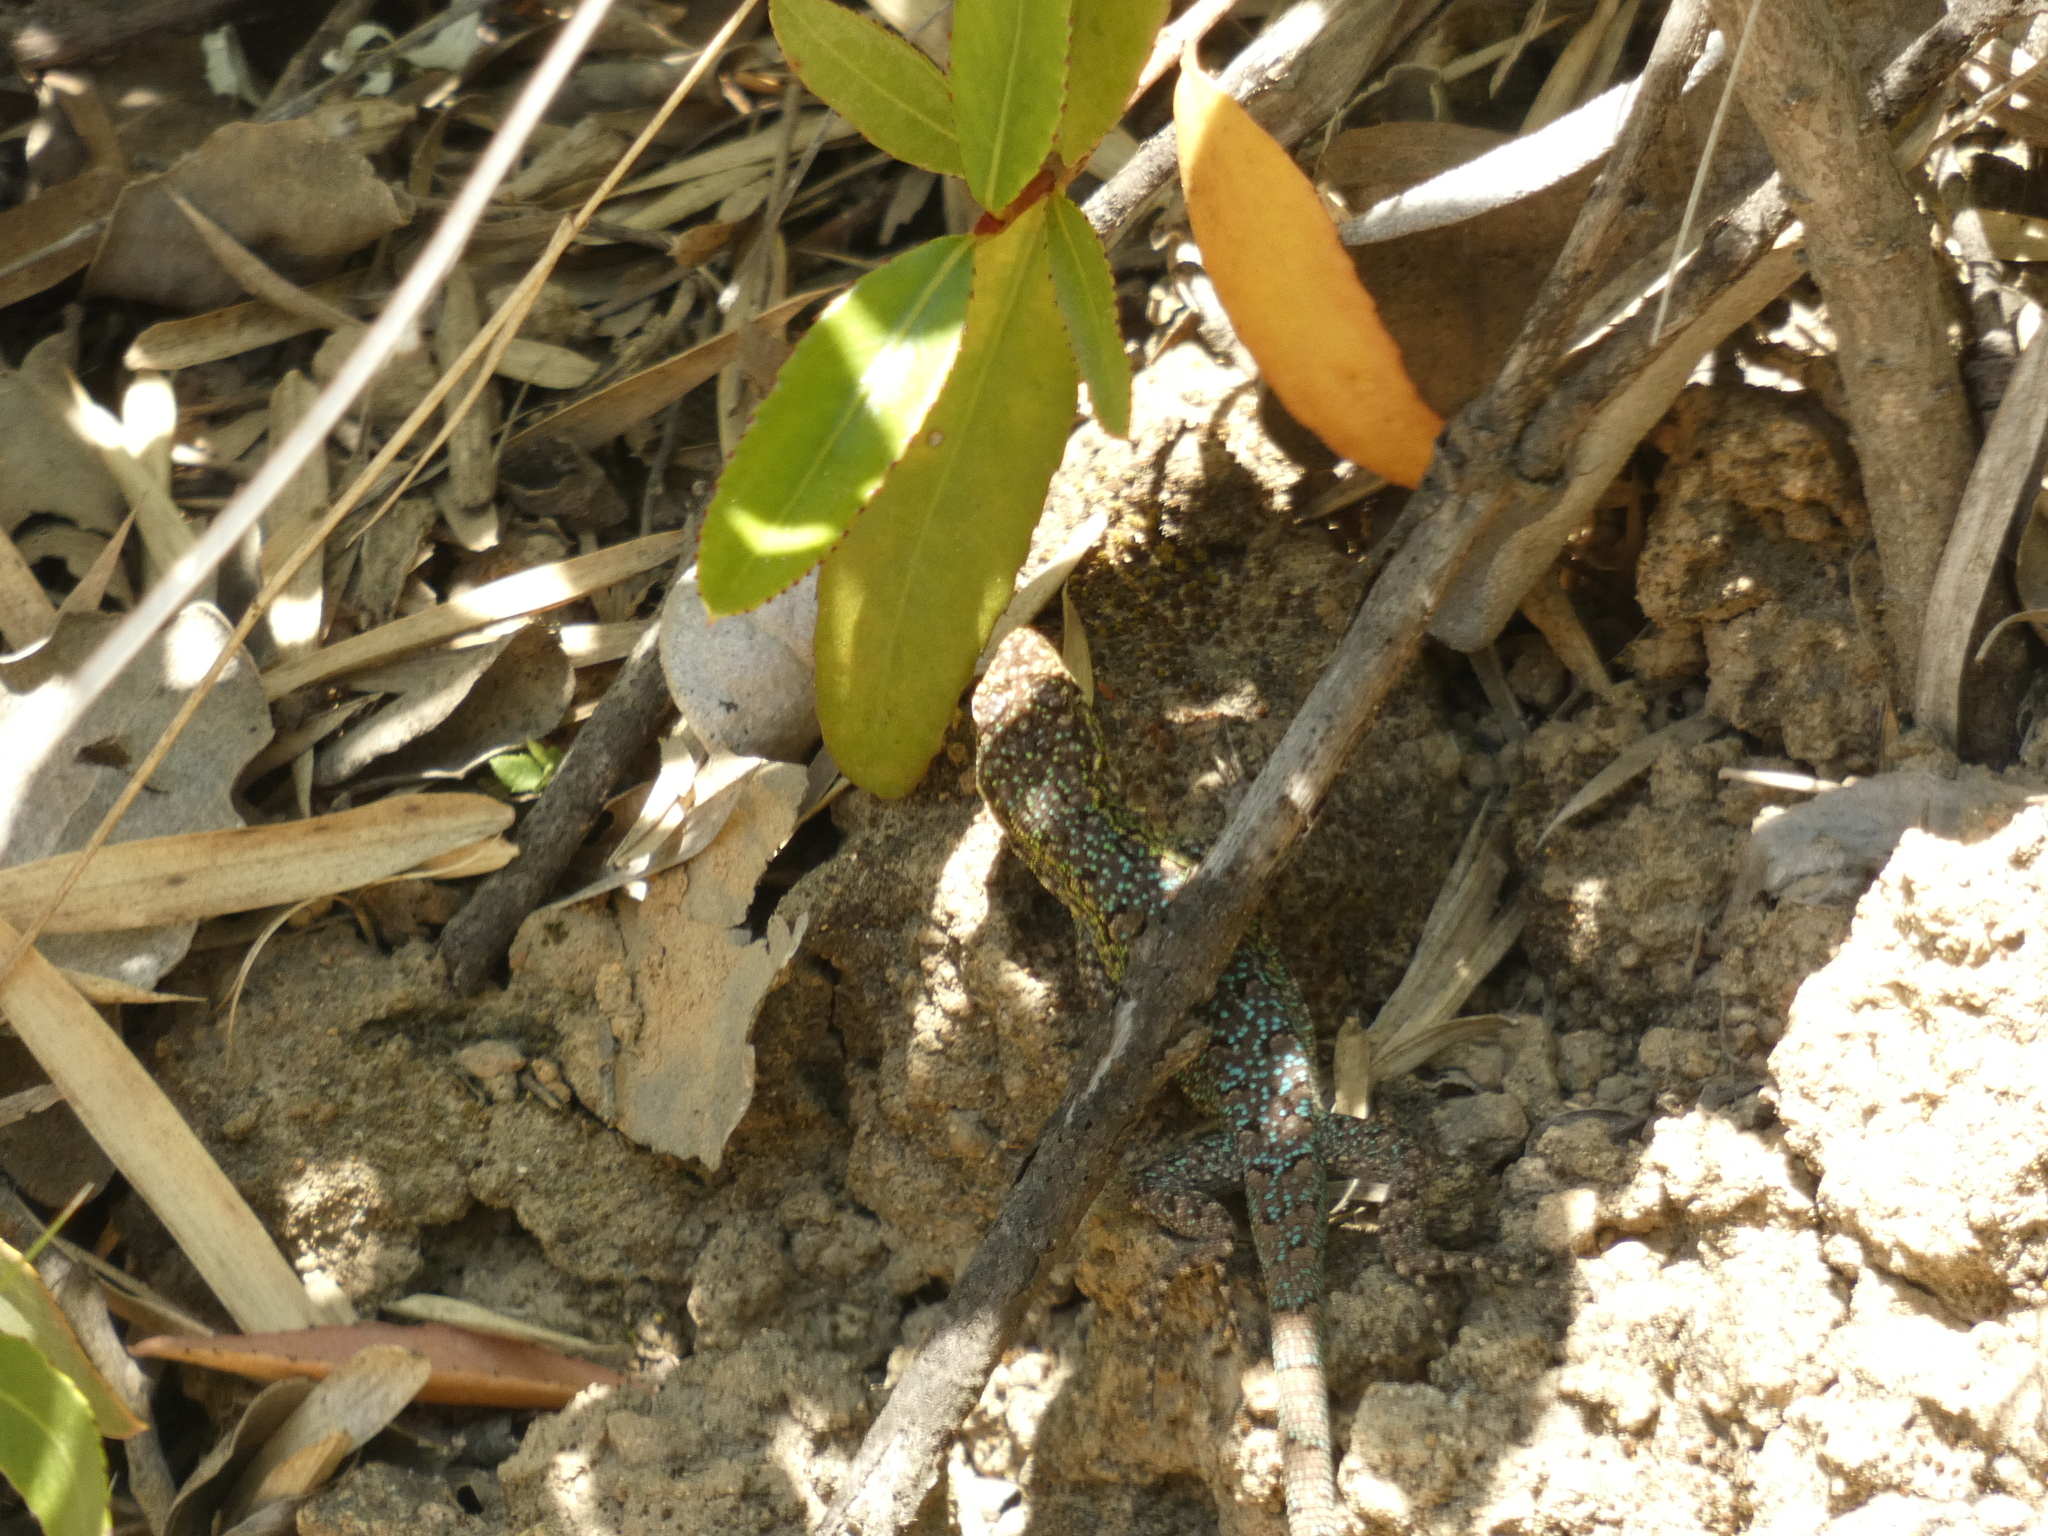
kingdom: Animalia
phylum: Chordata
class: Squamata
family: Liolaemidae
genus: Liolaemus
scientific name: Liolaemus tenuis
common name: Thin tree iguana
